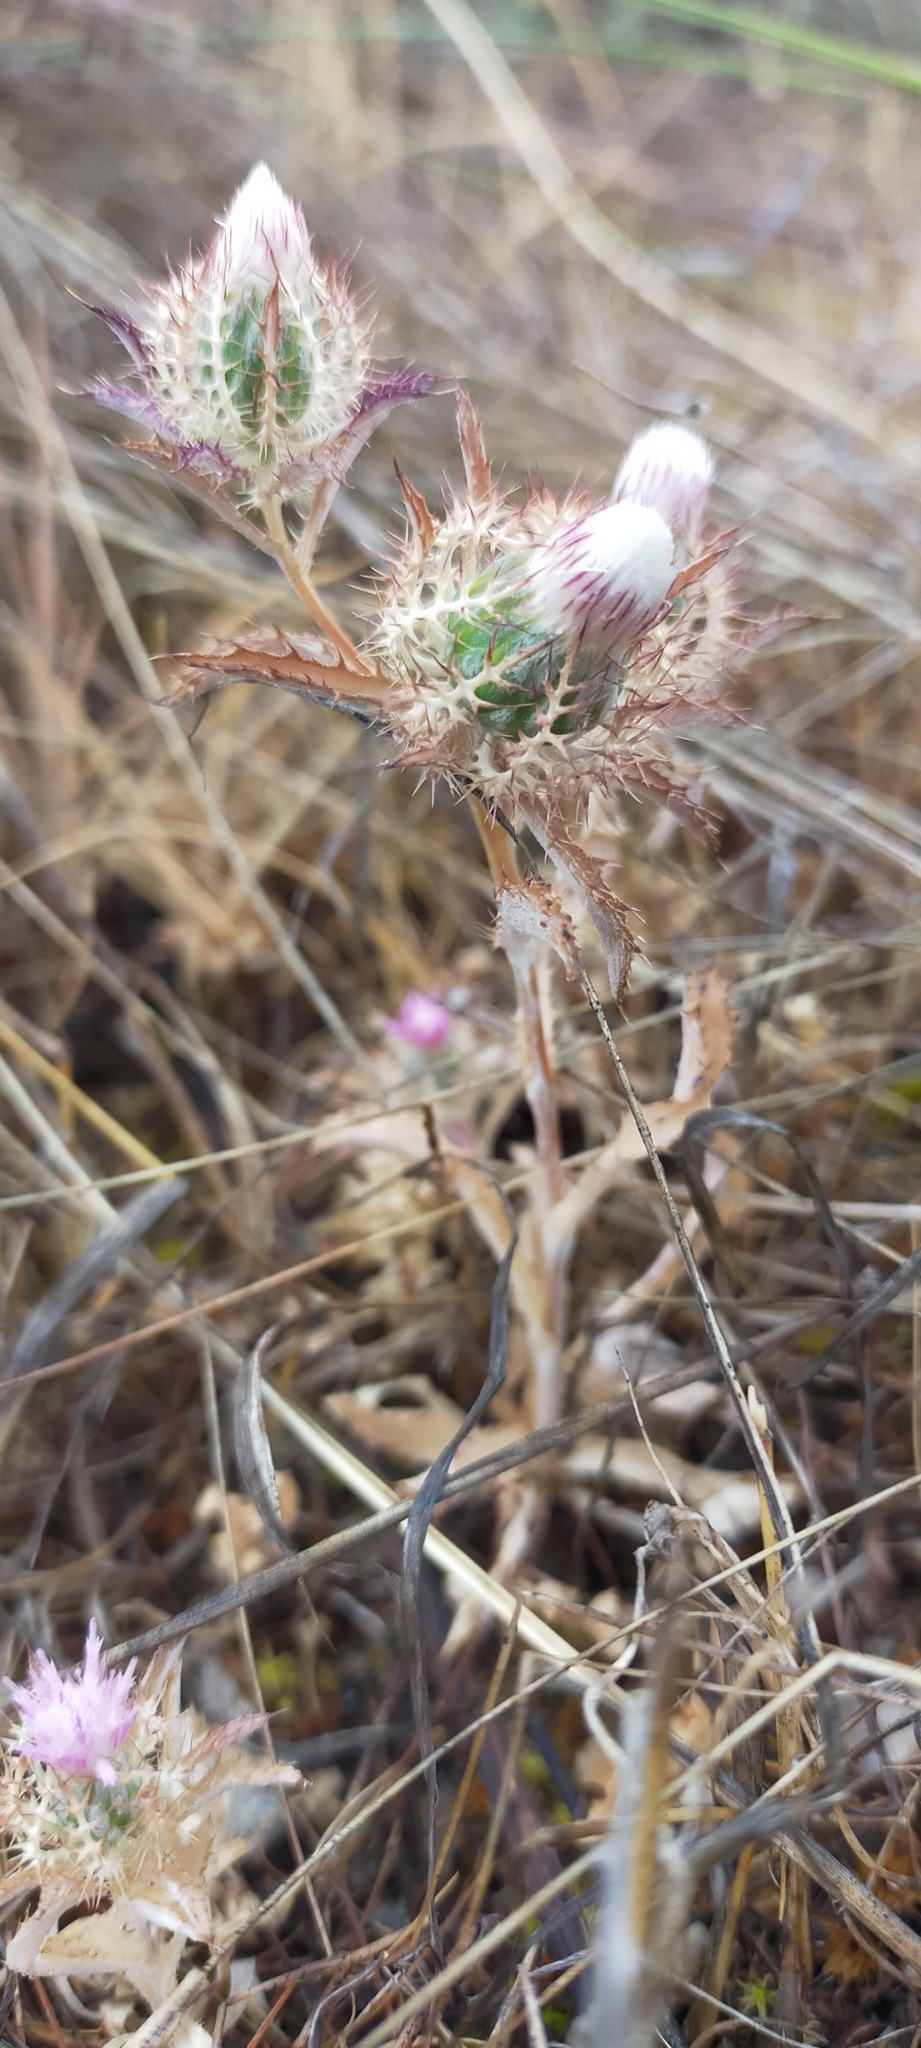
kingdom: Plantae
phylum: Tracheophyta
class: Magnoliopsida
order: Asterales
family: Asteraceae
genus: Atractylis
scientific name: Atractylis cancellata
